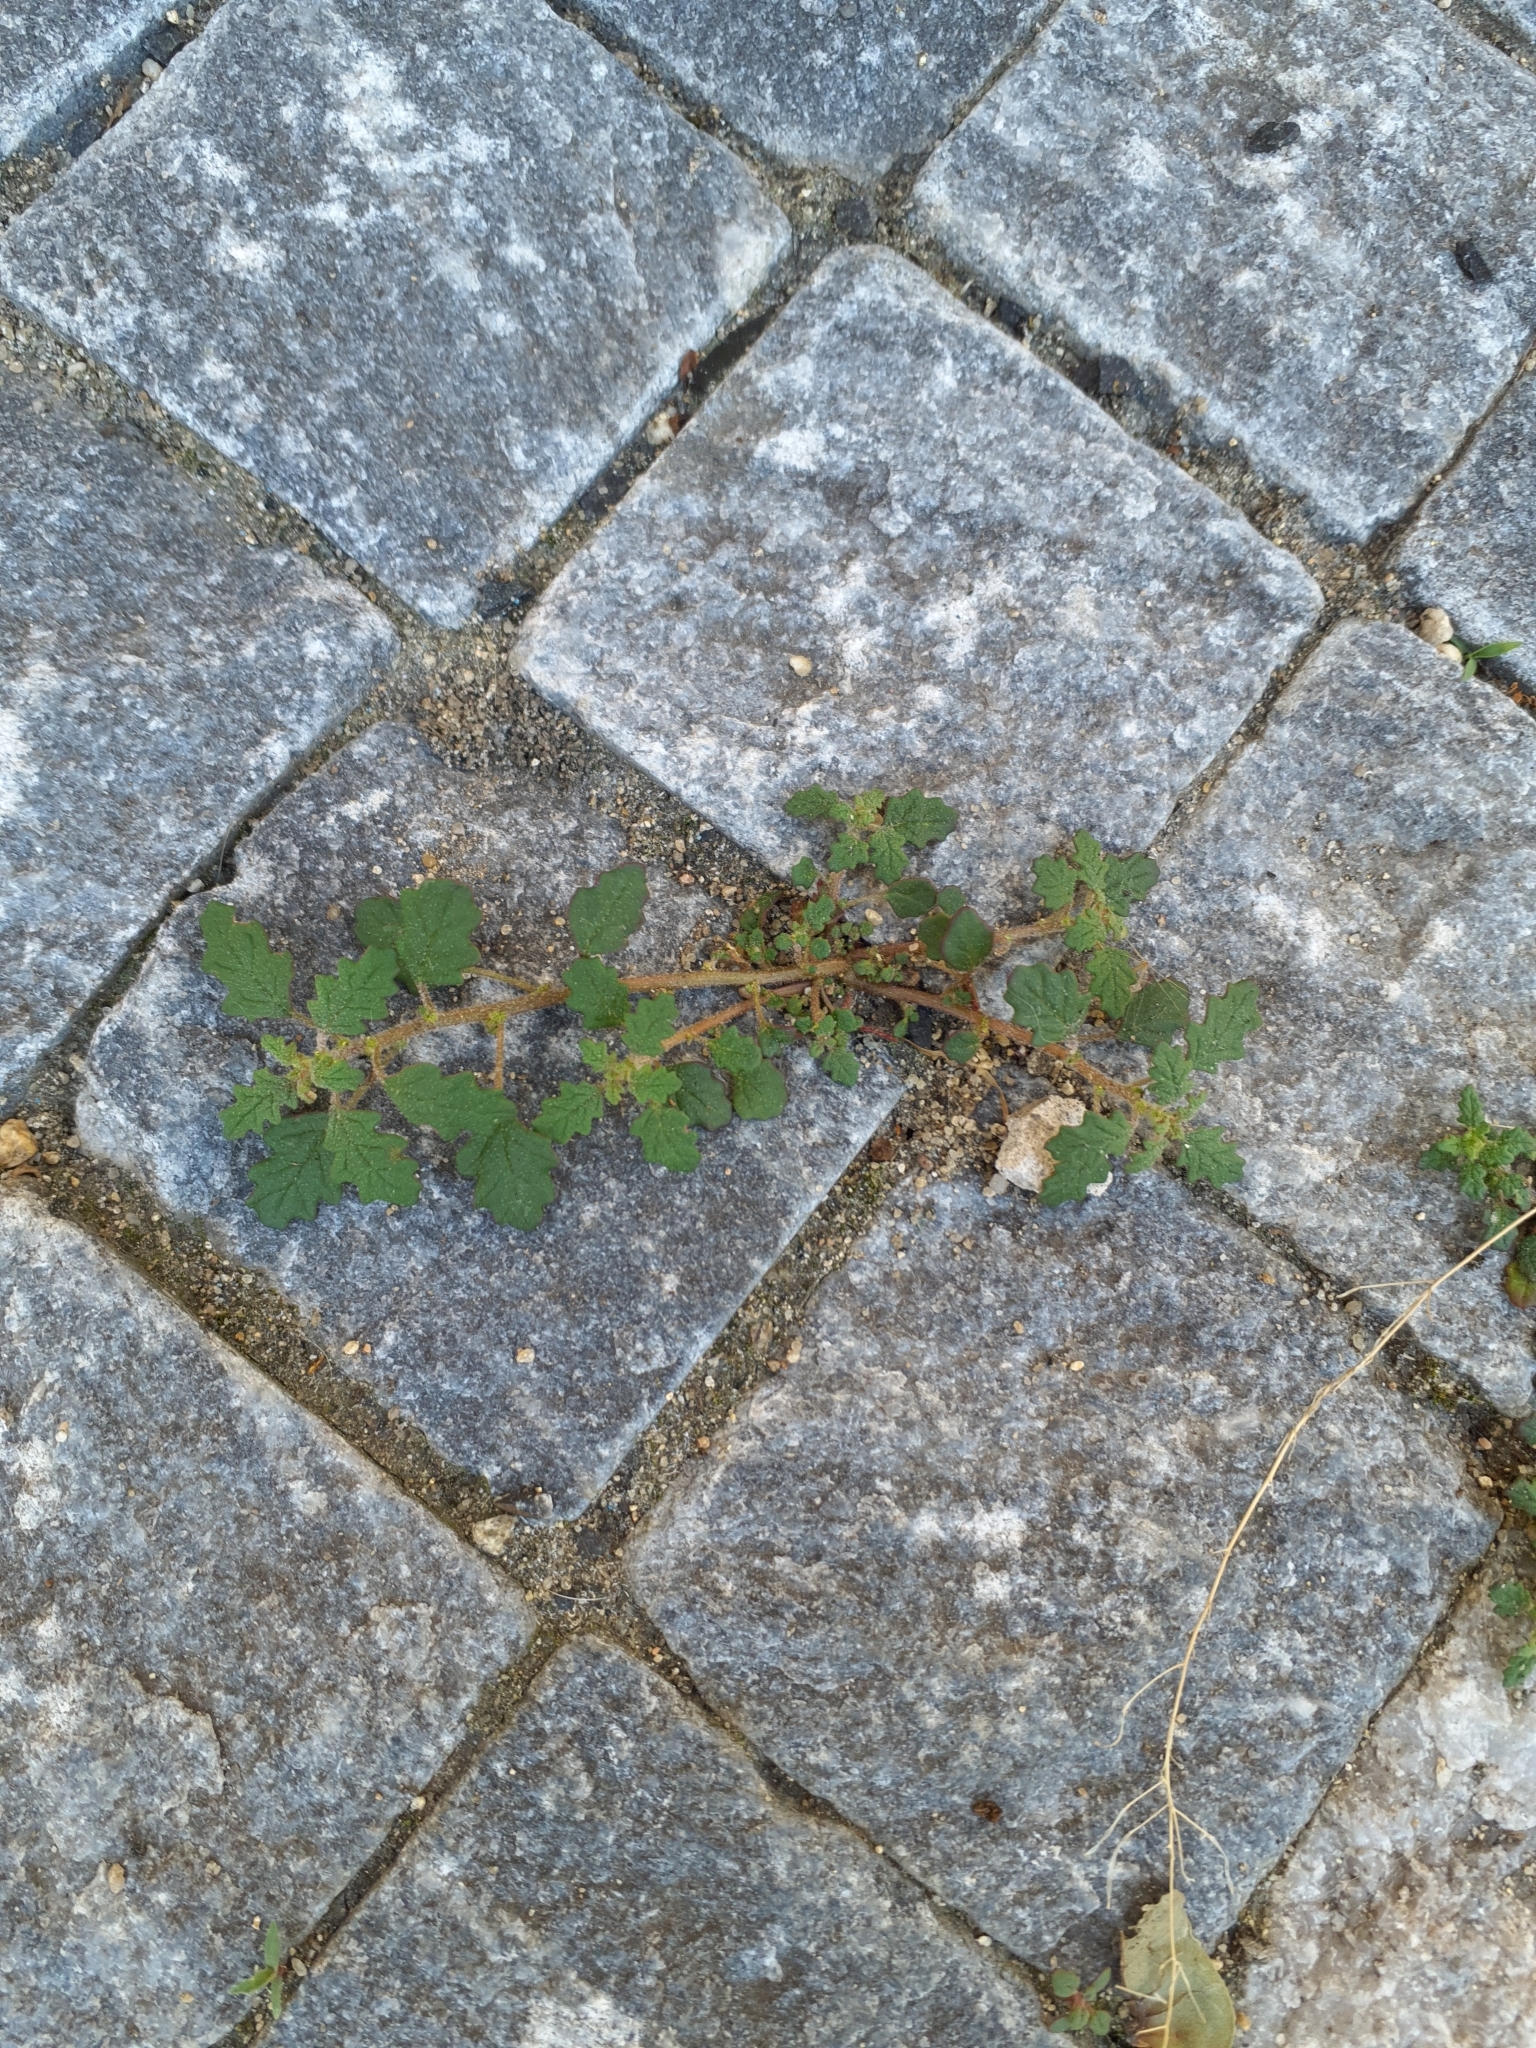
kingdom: Plantae
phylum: Tracheophyta
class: Magnoliopsida
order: Caryophyllales
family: Amaranthaceae
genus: Dysphania
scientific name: Dysphania pumilio
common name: Clammy goosefoot
